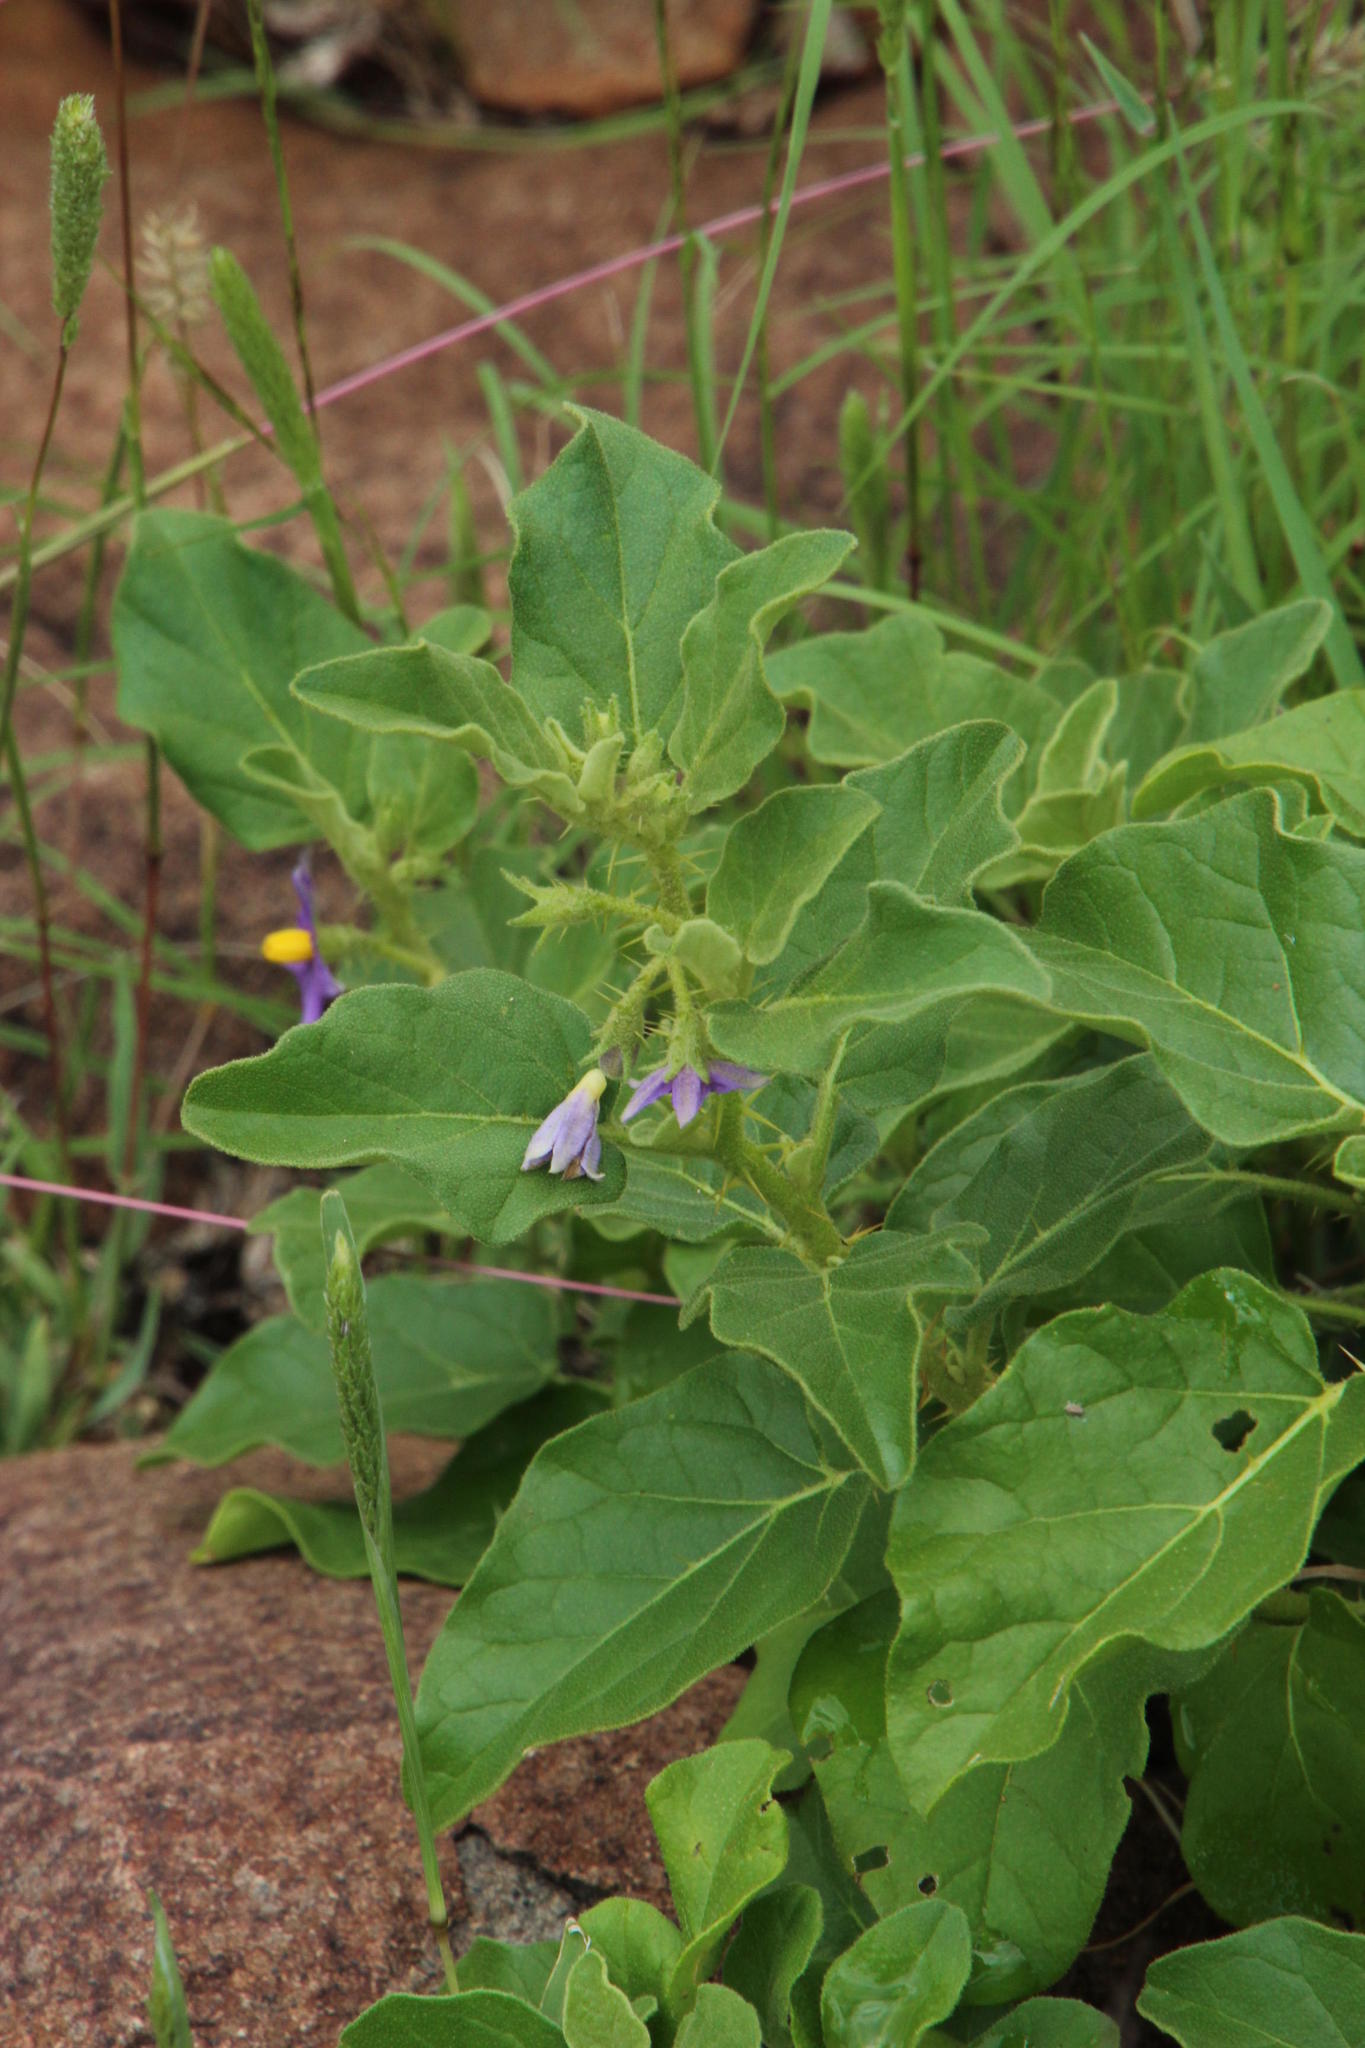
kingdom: Plantae
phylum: Tracheophyta
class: Magnoliopsida
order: Solanales
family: Solanaceae
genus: Solanum
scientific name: Solanum tomentosum
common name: Wild aubergine
